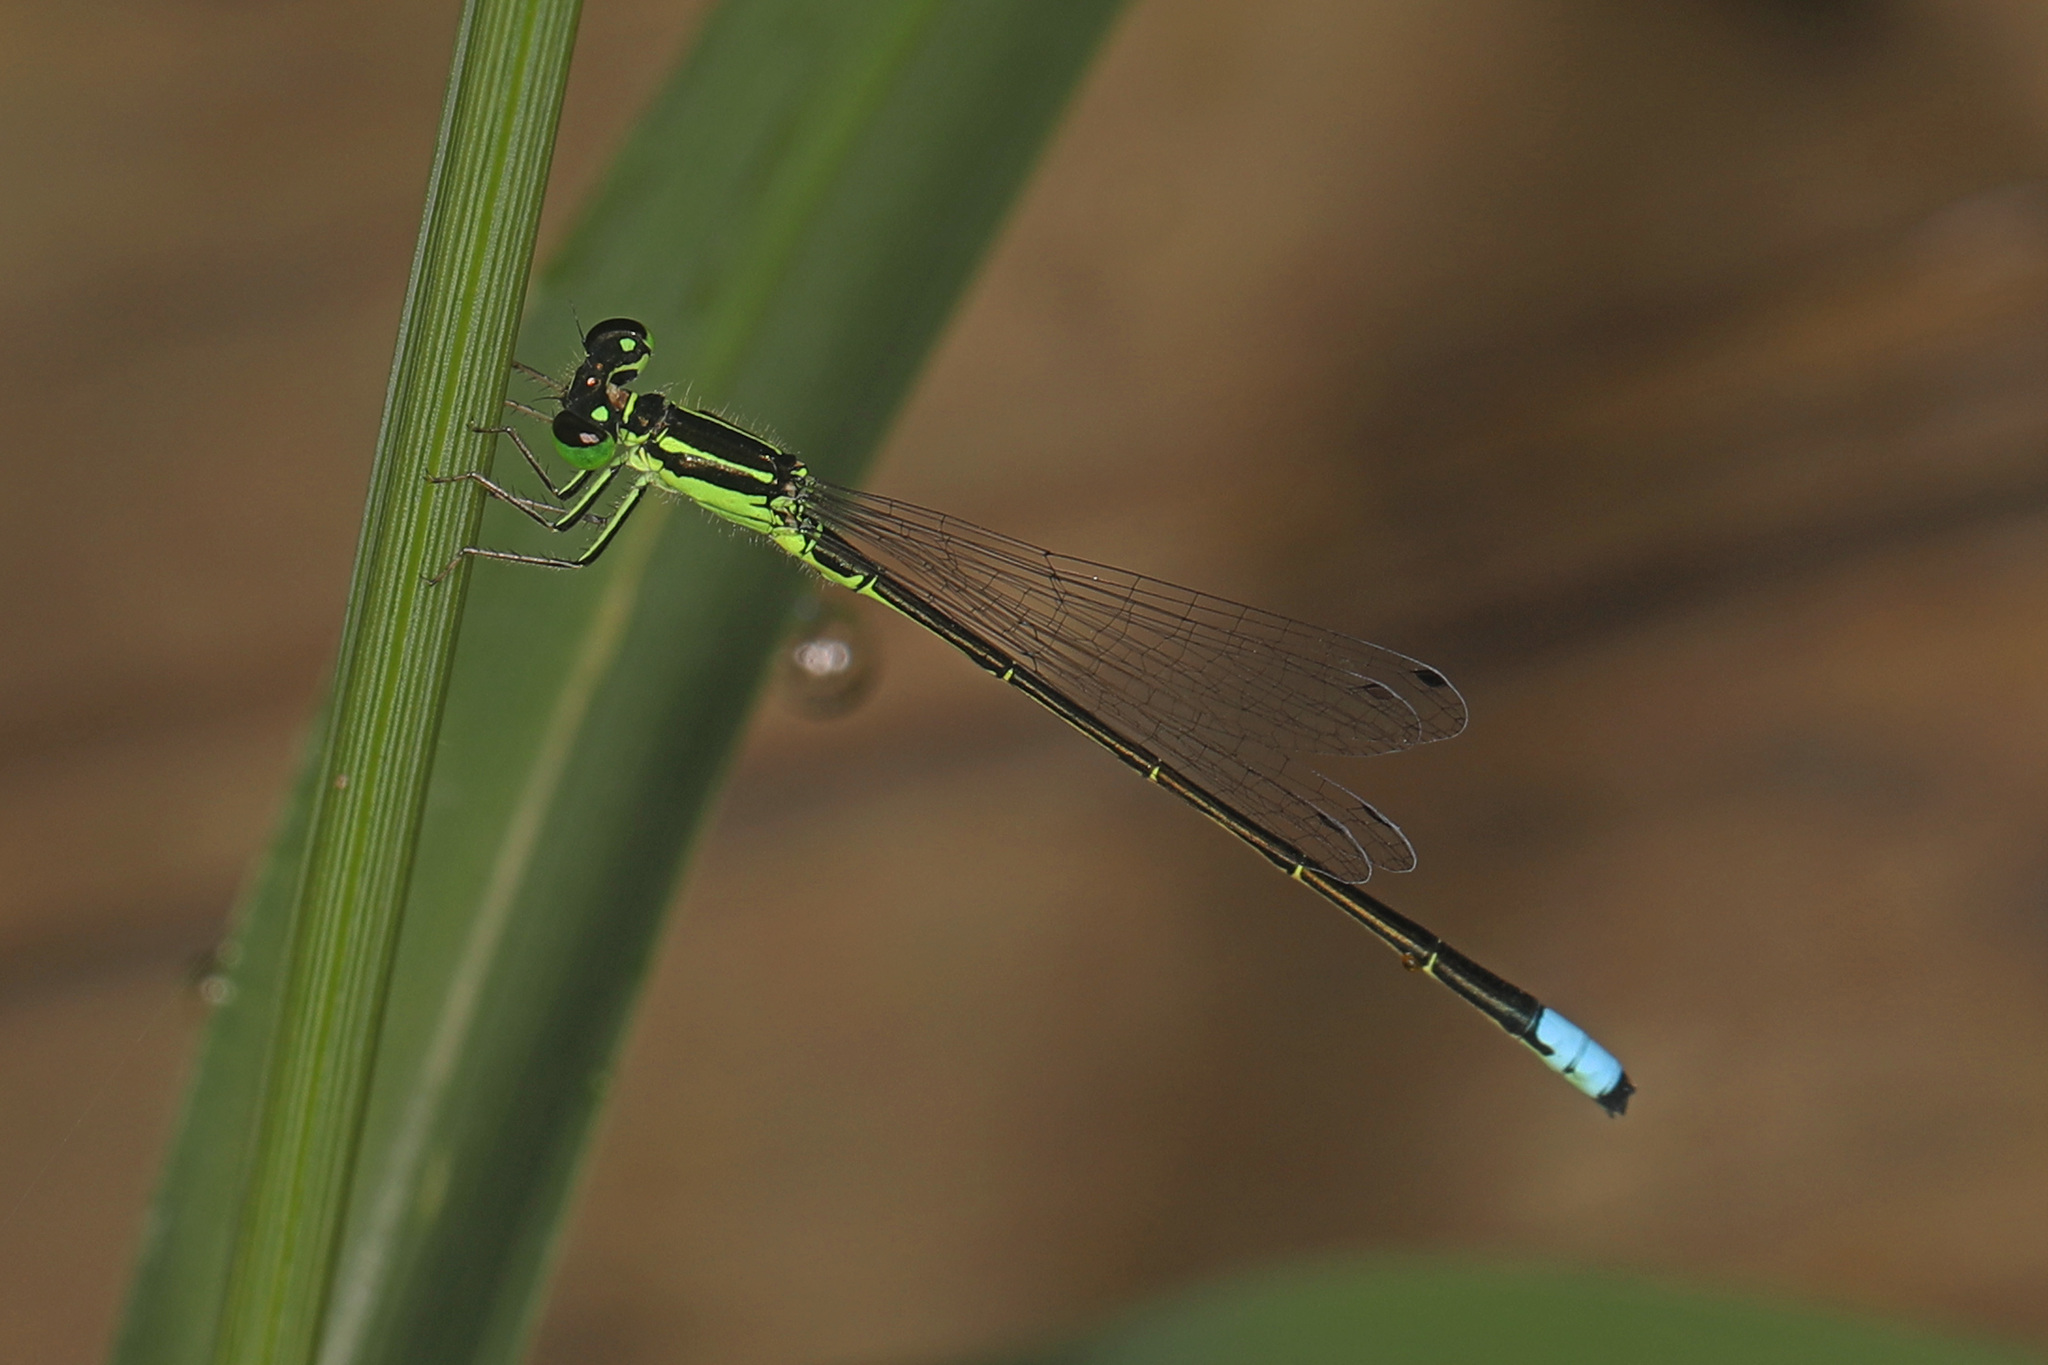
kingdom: Animalia
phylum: Arthropoda
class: Insecta
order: Odonata
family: Coenagrionidae
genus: Ischnura
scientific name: Ischnura verticalis
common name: Eastern forktail
